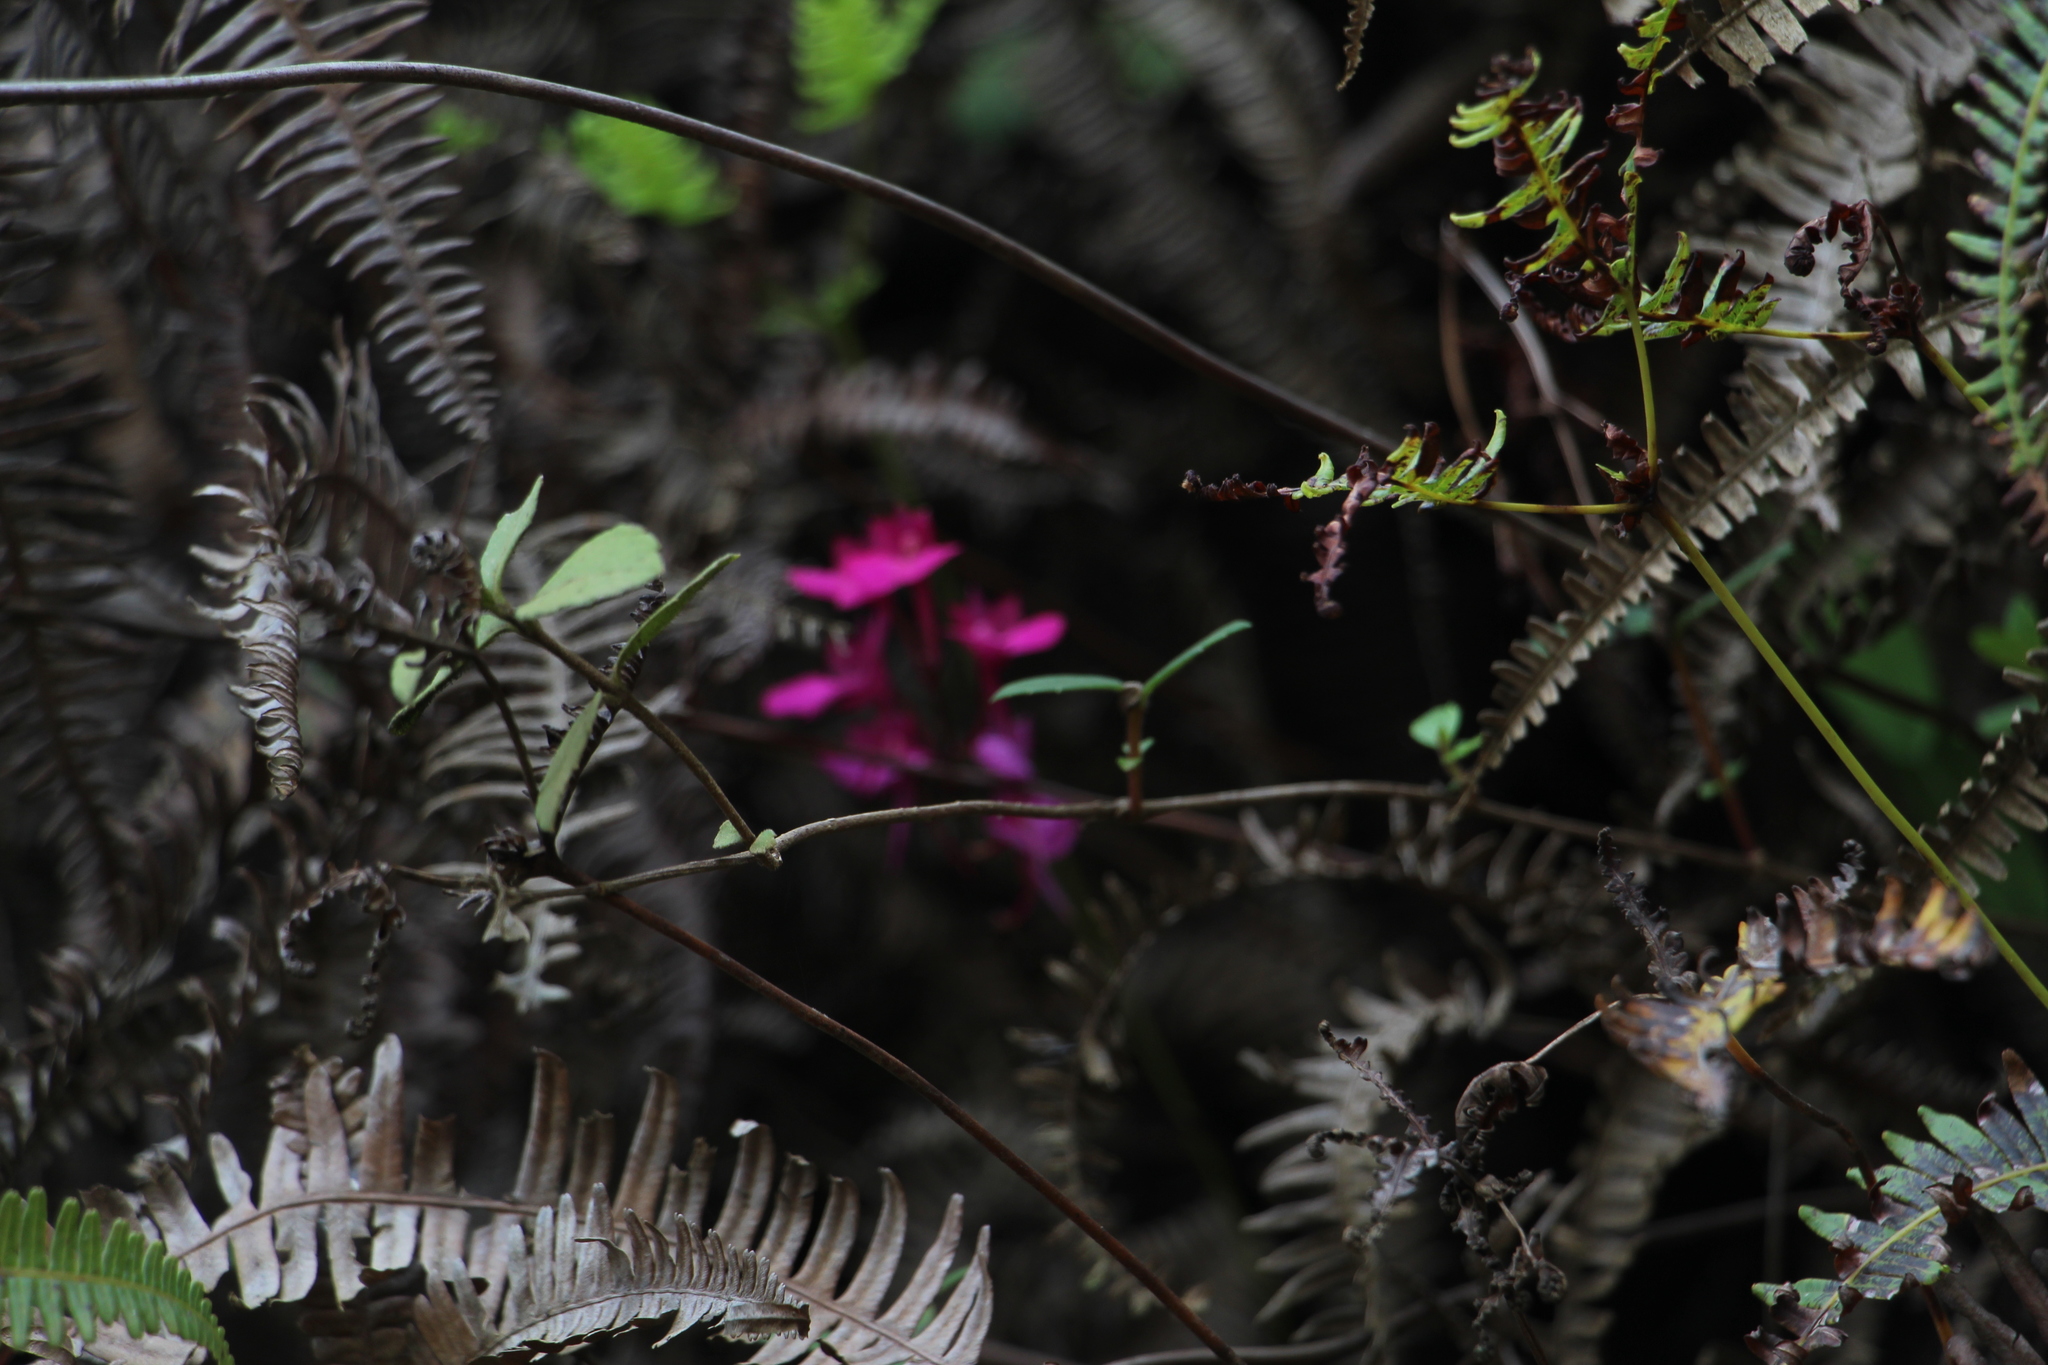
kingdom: Plantae
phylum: Tracheophyta
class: Liliopsida
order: Asparagales
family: Orchidaceae
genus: Comparettia
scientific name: Comparettia falcata
